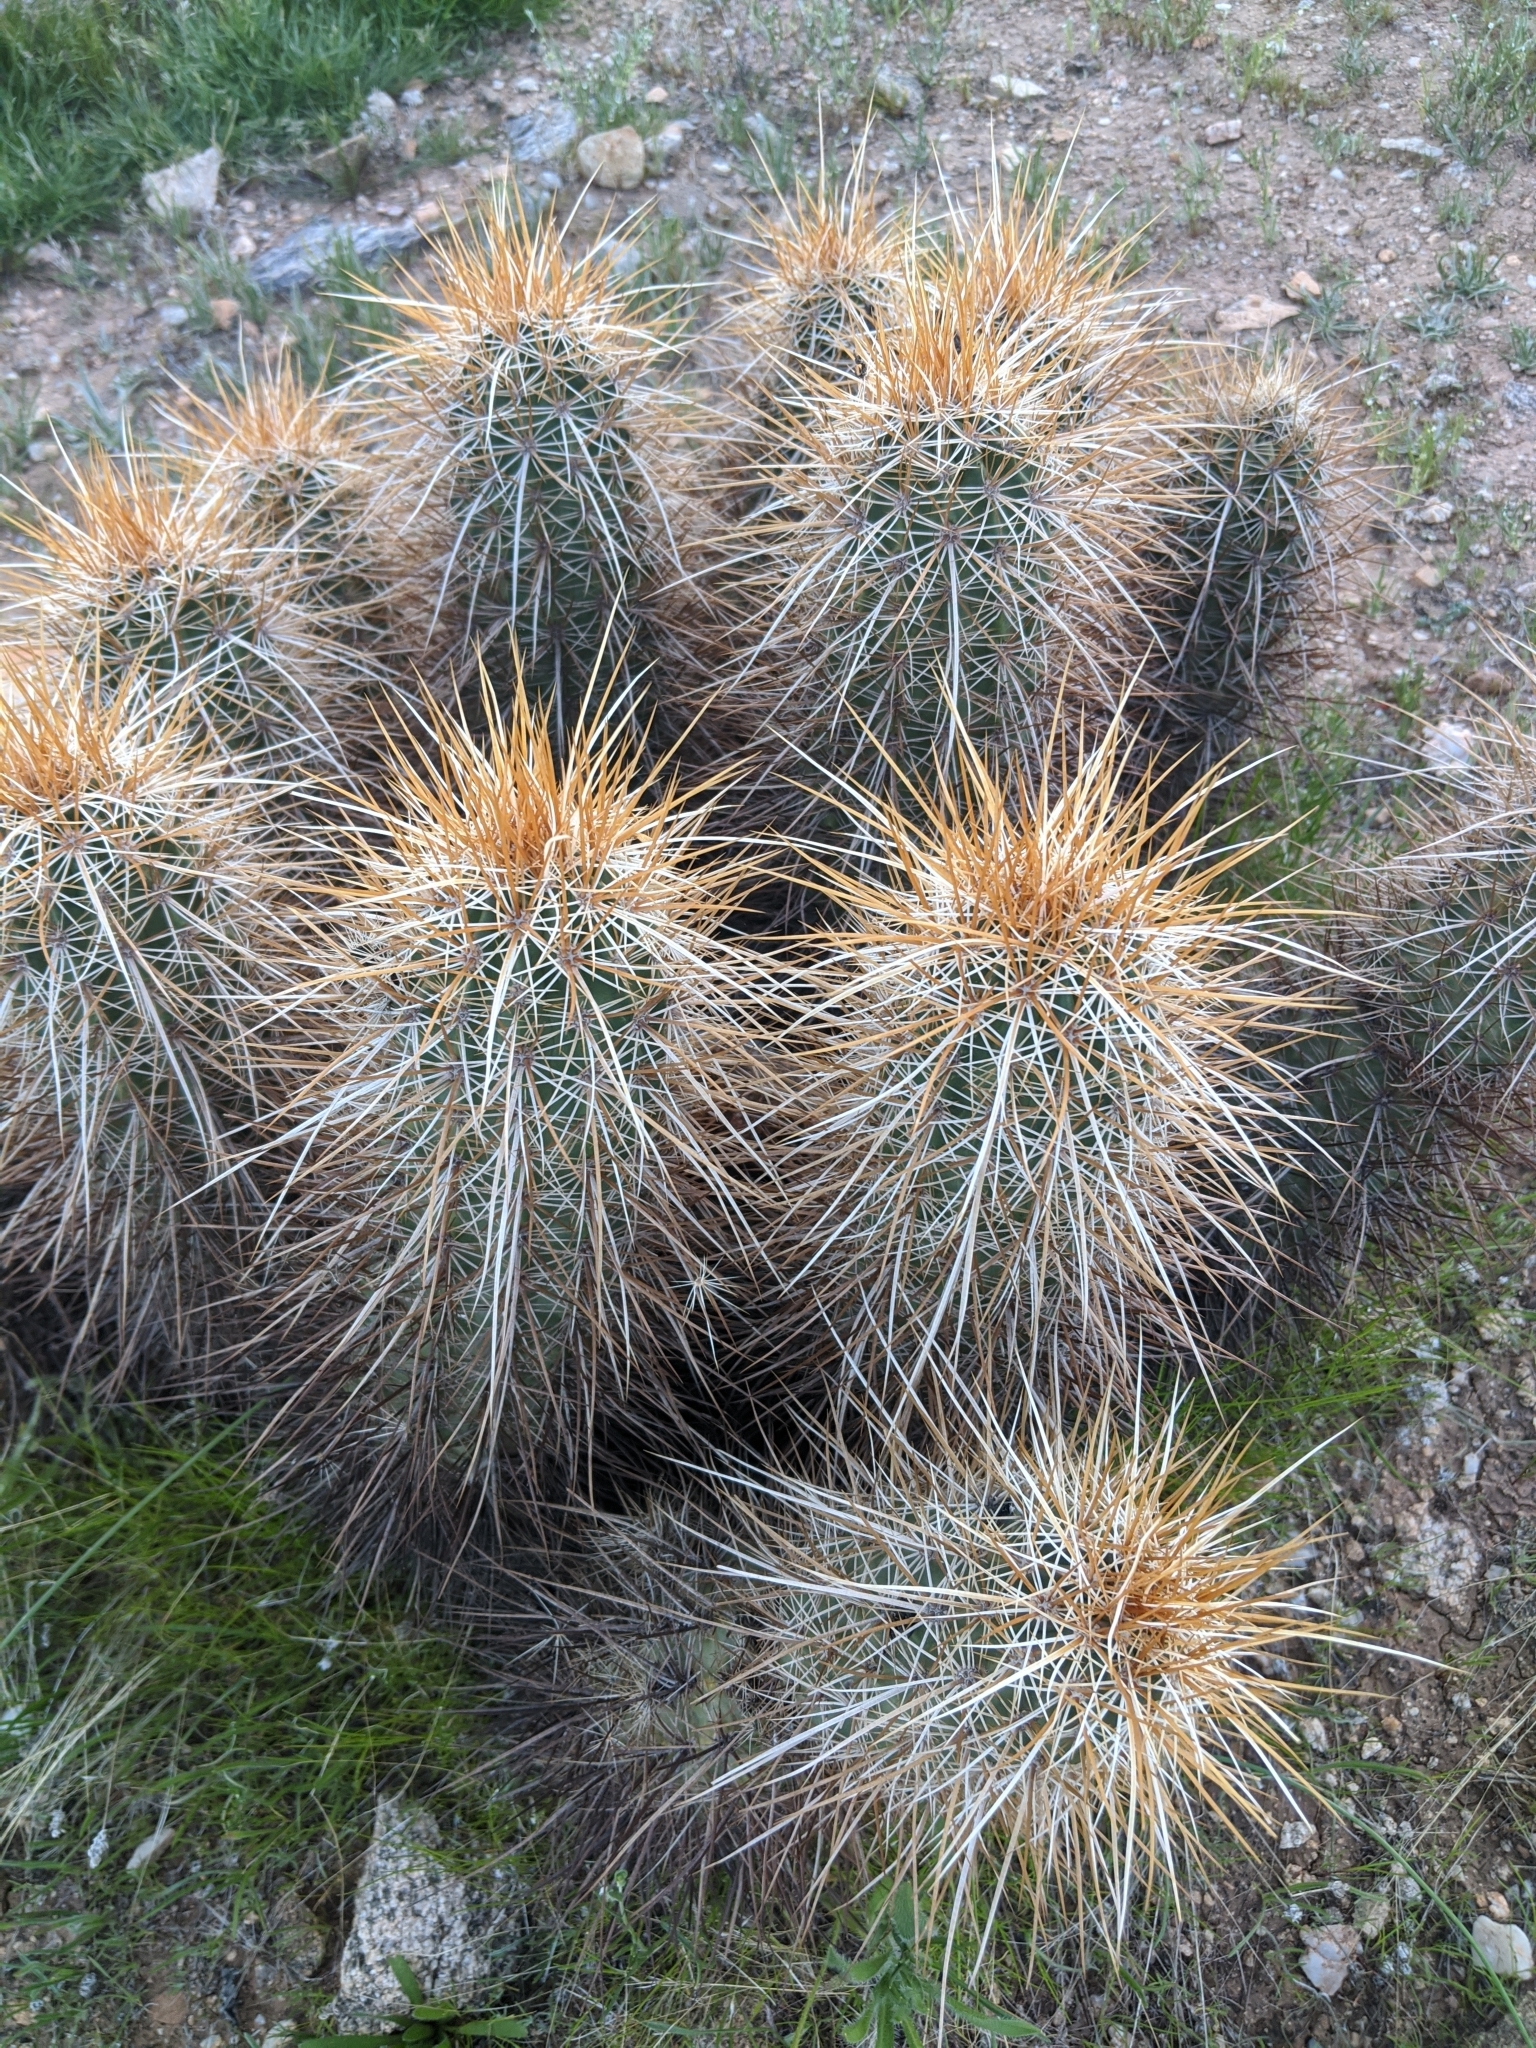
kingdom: Plantae
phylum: Tracheophyta
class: Magnoliopsida
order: Caryophyllales
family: Cactaceae
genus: Echinocereus
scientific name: Echinocereus engelmannii
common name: Engelmann's hedgehog cactus
